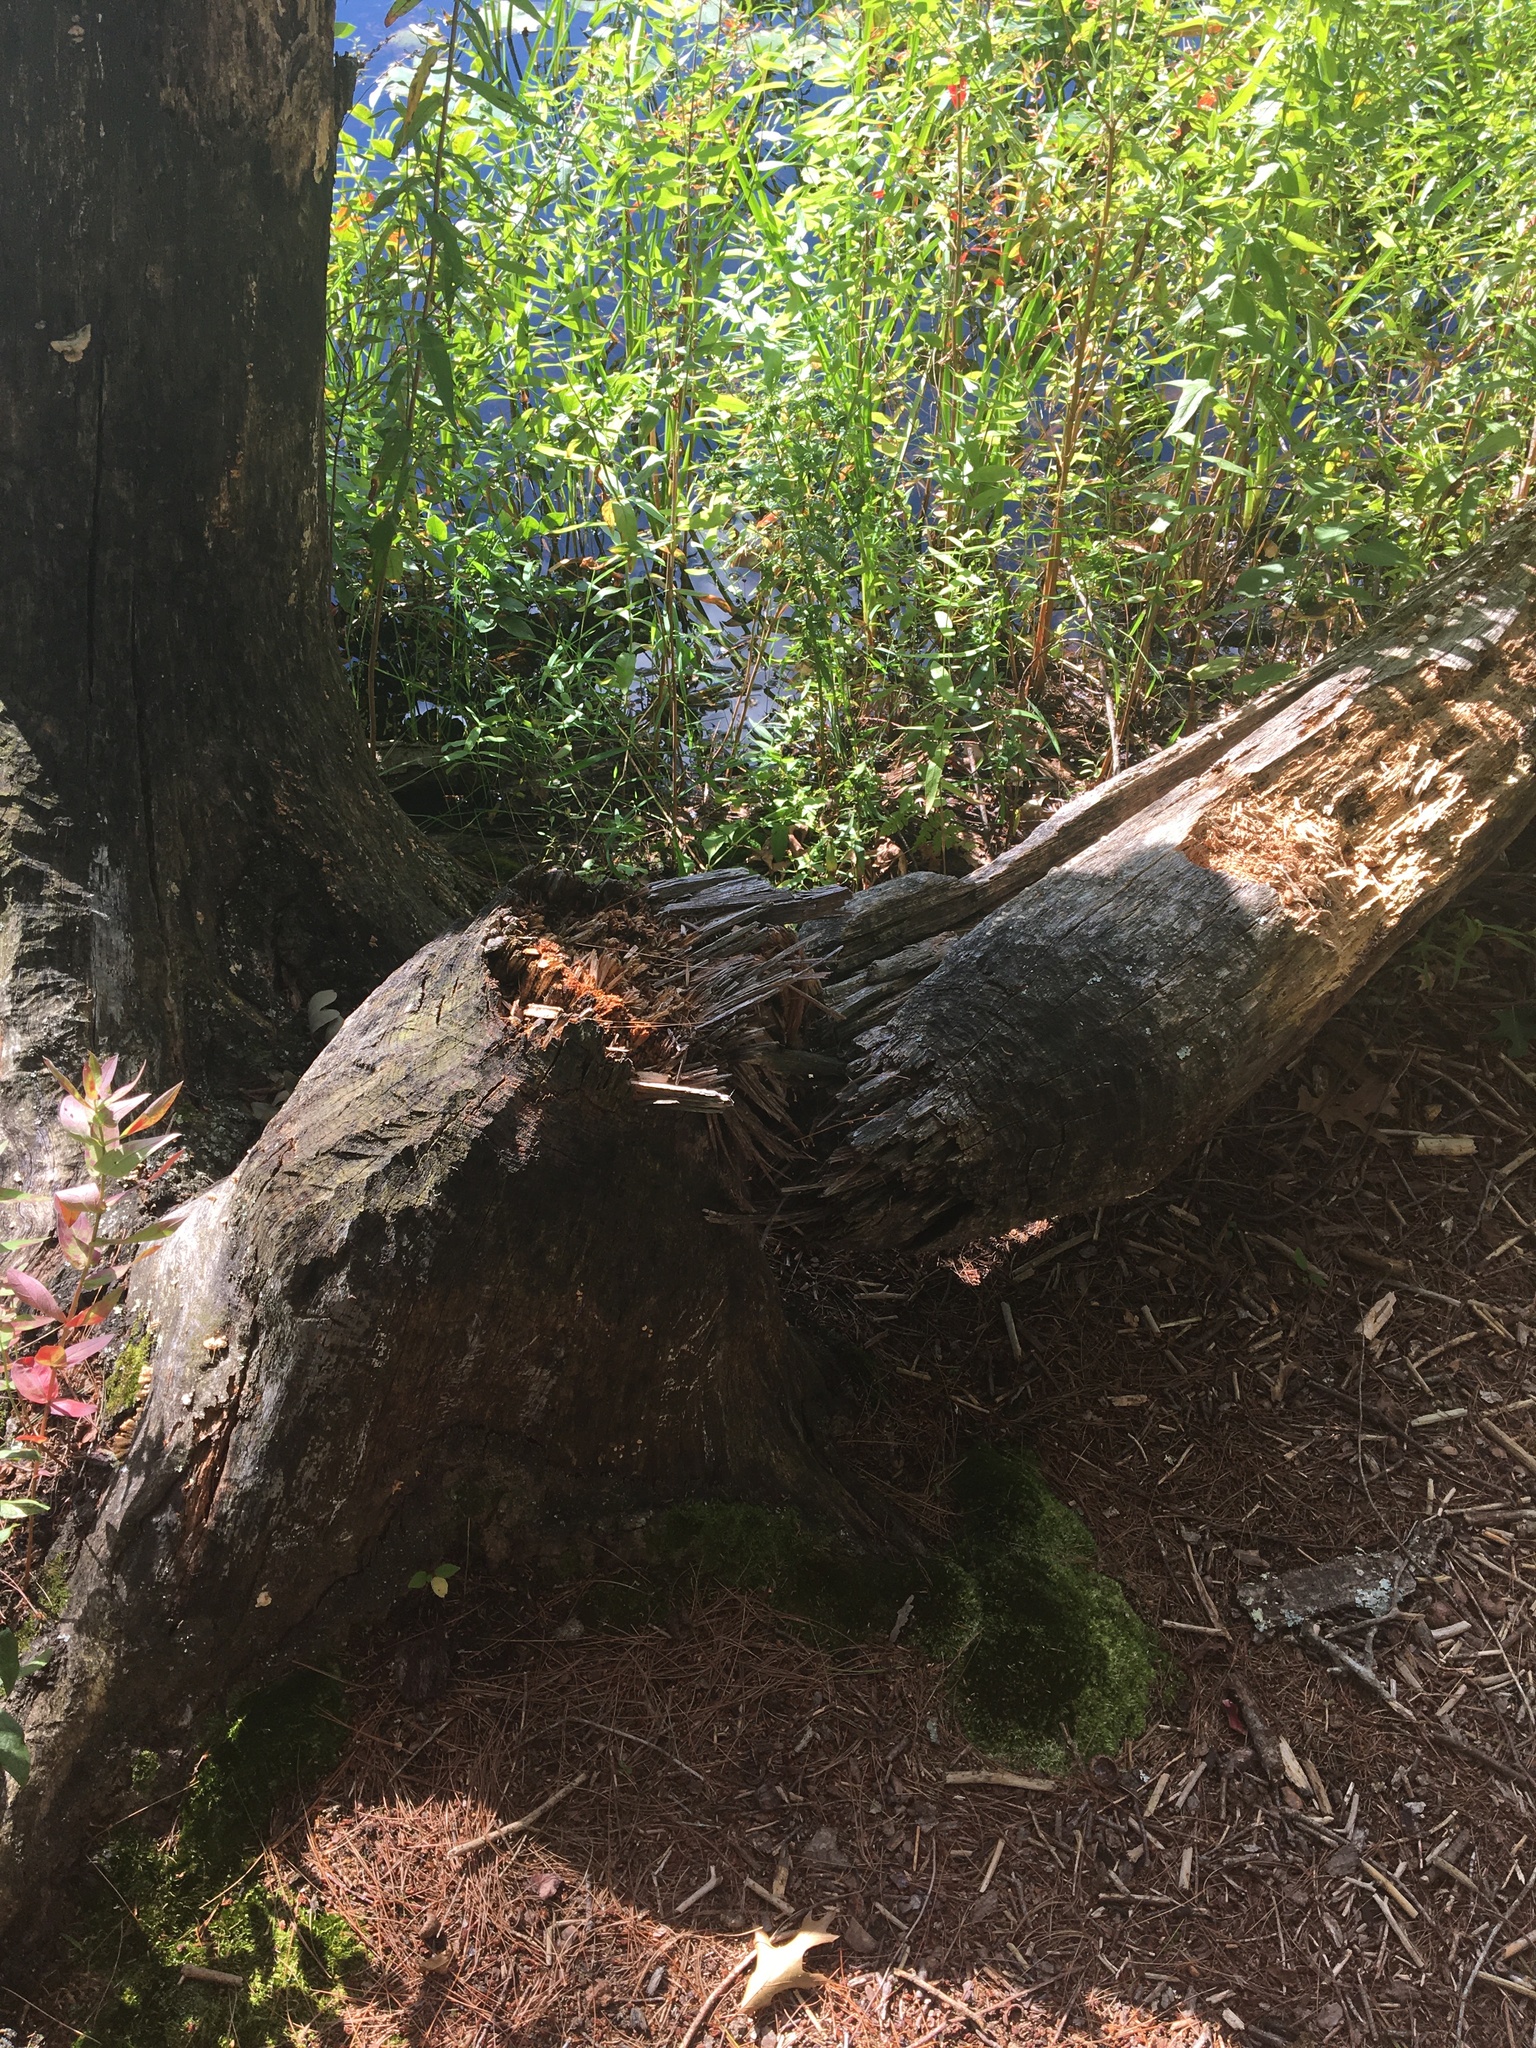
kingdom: Animalia
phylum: Chordata
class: Mammalia
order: Rodentia
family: Castoridae
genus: Castor
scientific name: Castor canadensis
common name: American beaver
